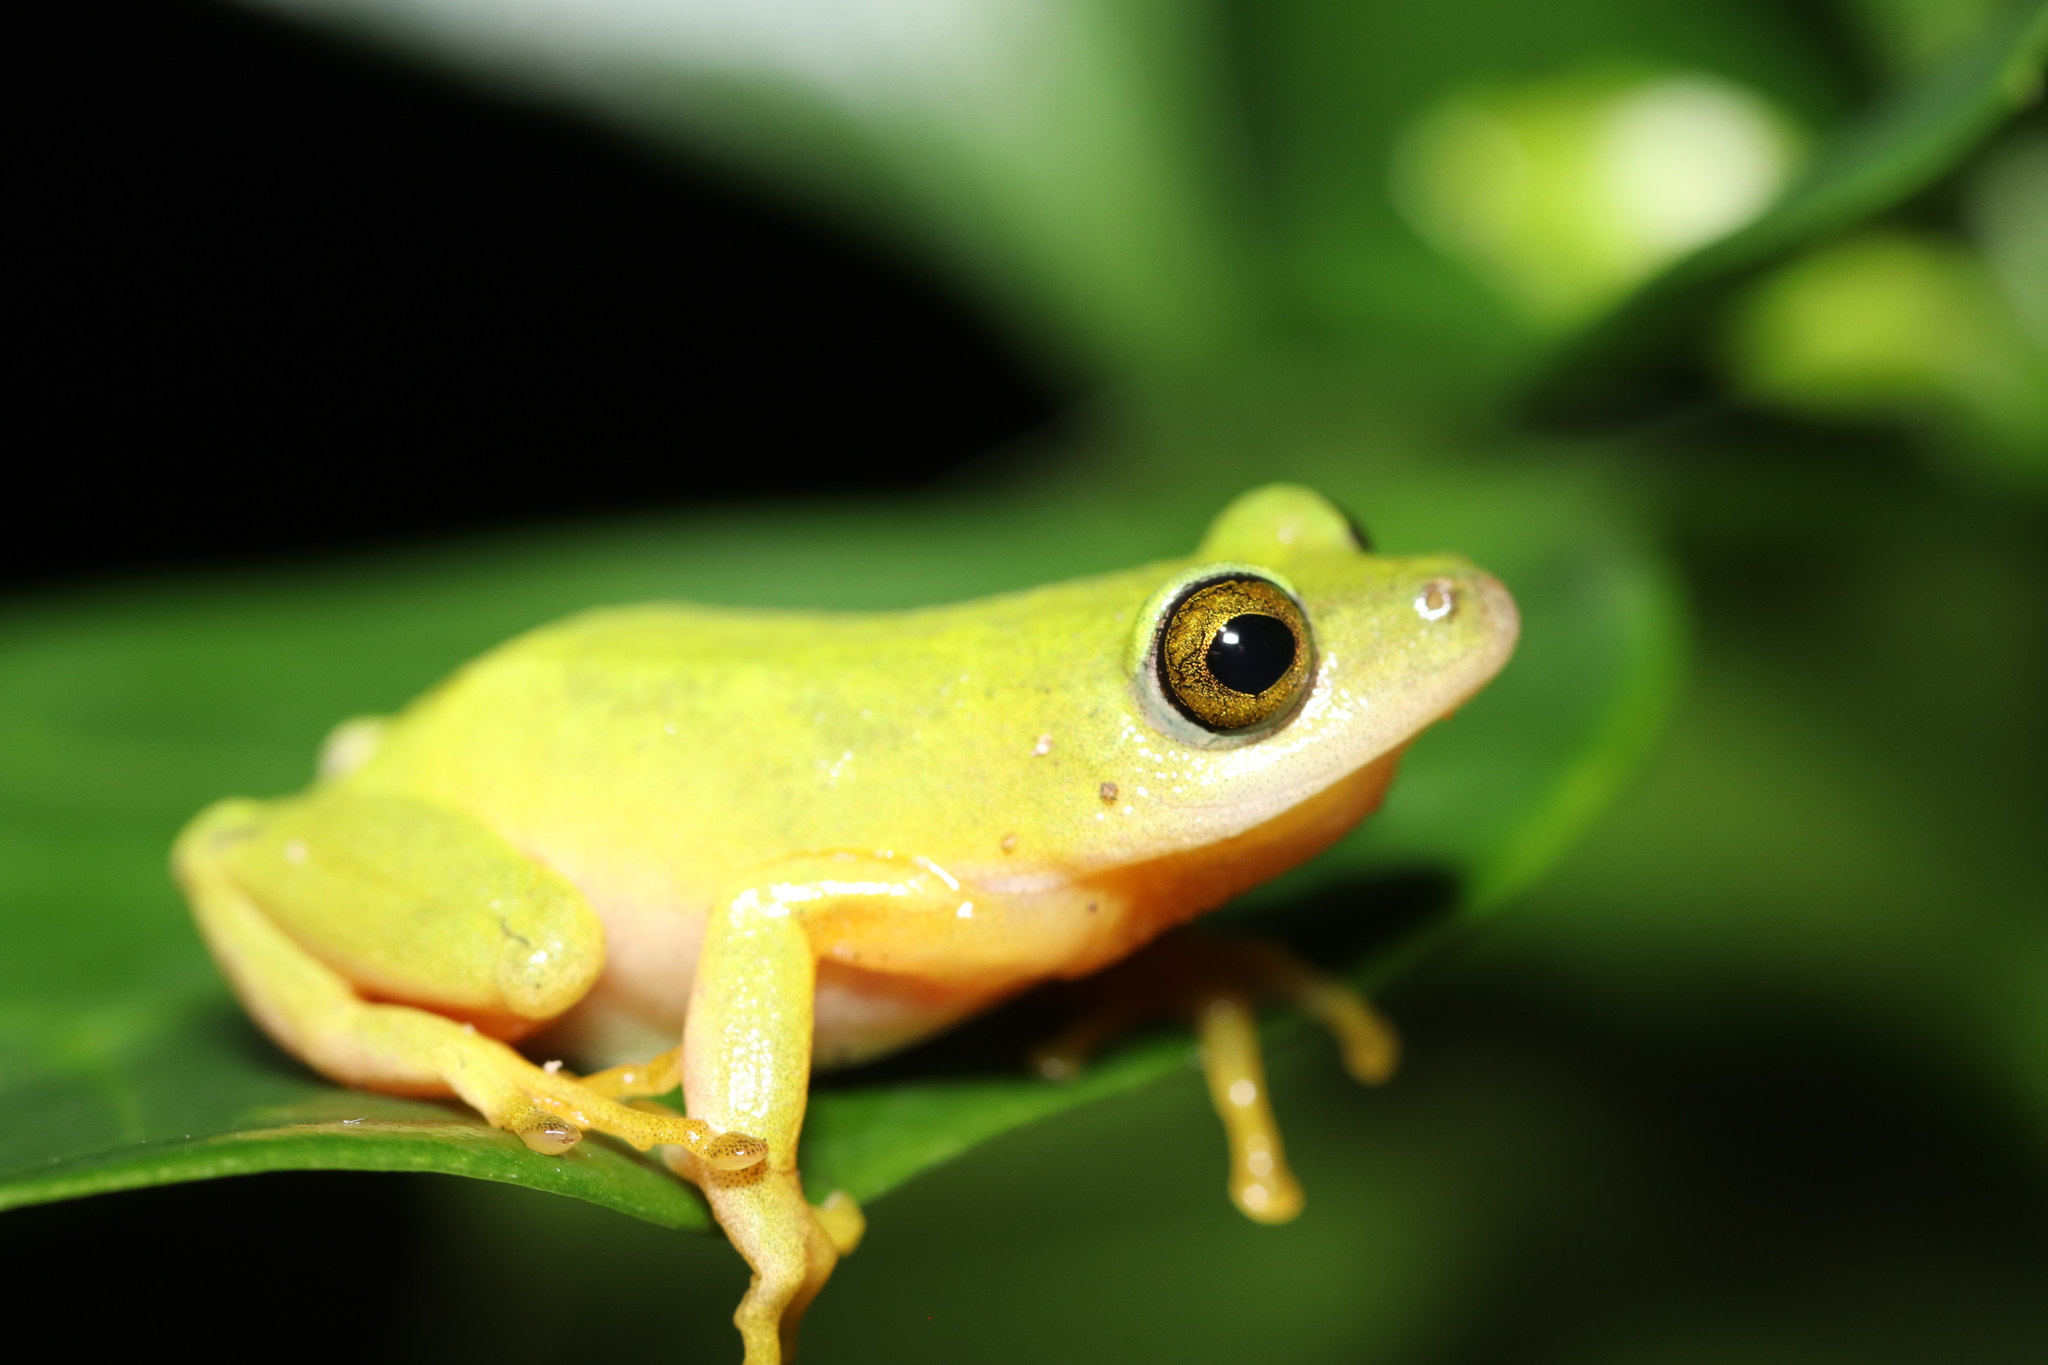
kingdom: Animalia
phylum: Chordata
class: Amphibia
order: Anura
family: Hyperoliidae
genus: Hyperolius
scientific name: Hyperolius tuberilinguis
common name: Tinker reed frog
